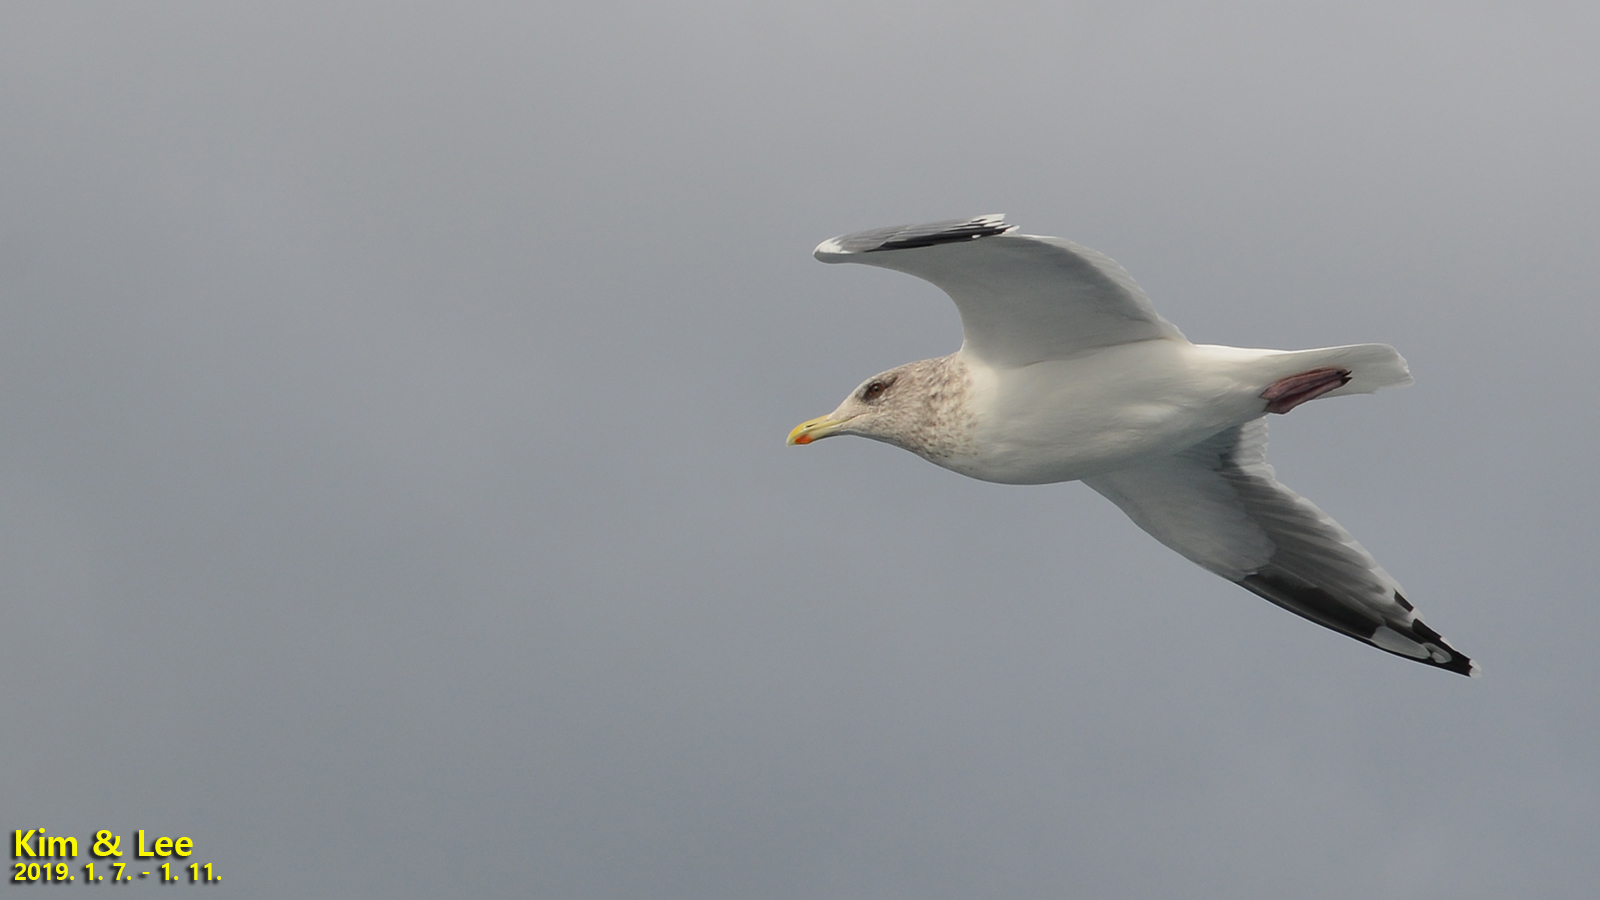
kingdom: Animalia
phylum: Chordata
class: Aves
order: Charadriiformes
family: Laridae
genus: Larus
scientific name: Larus vegae
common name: Vega gull
